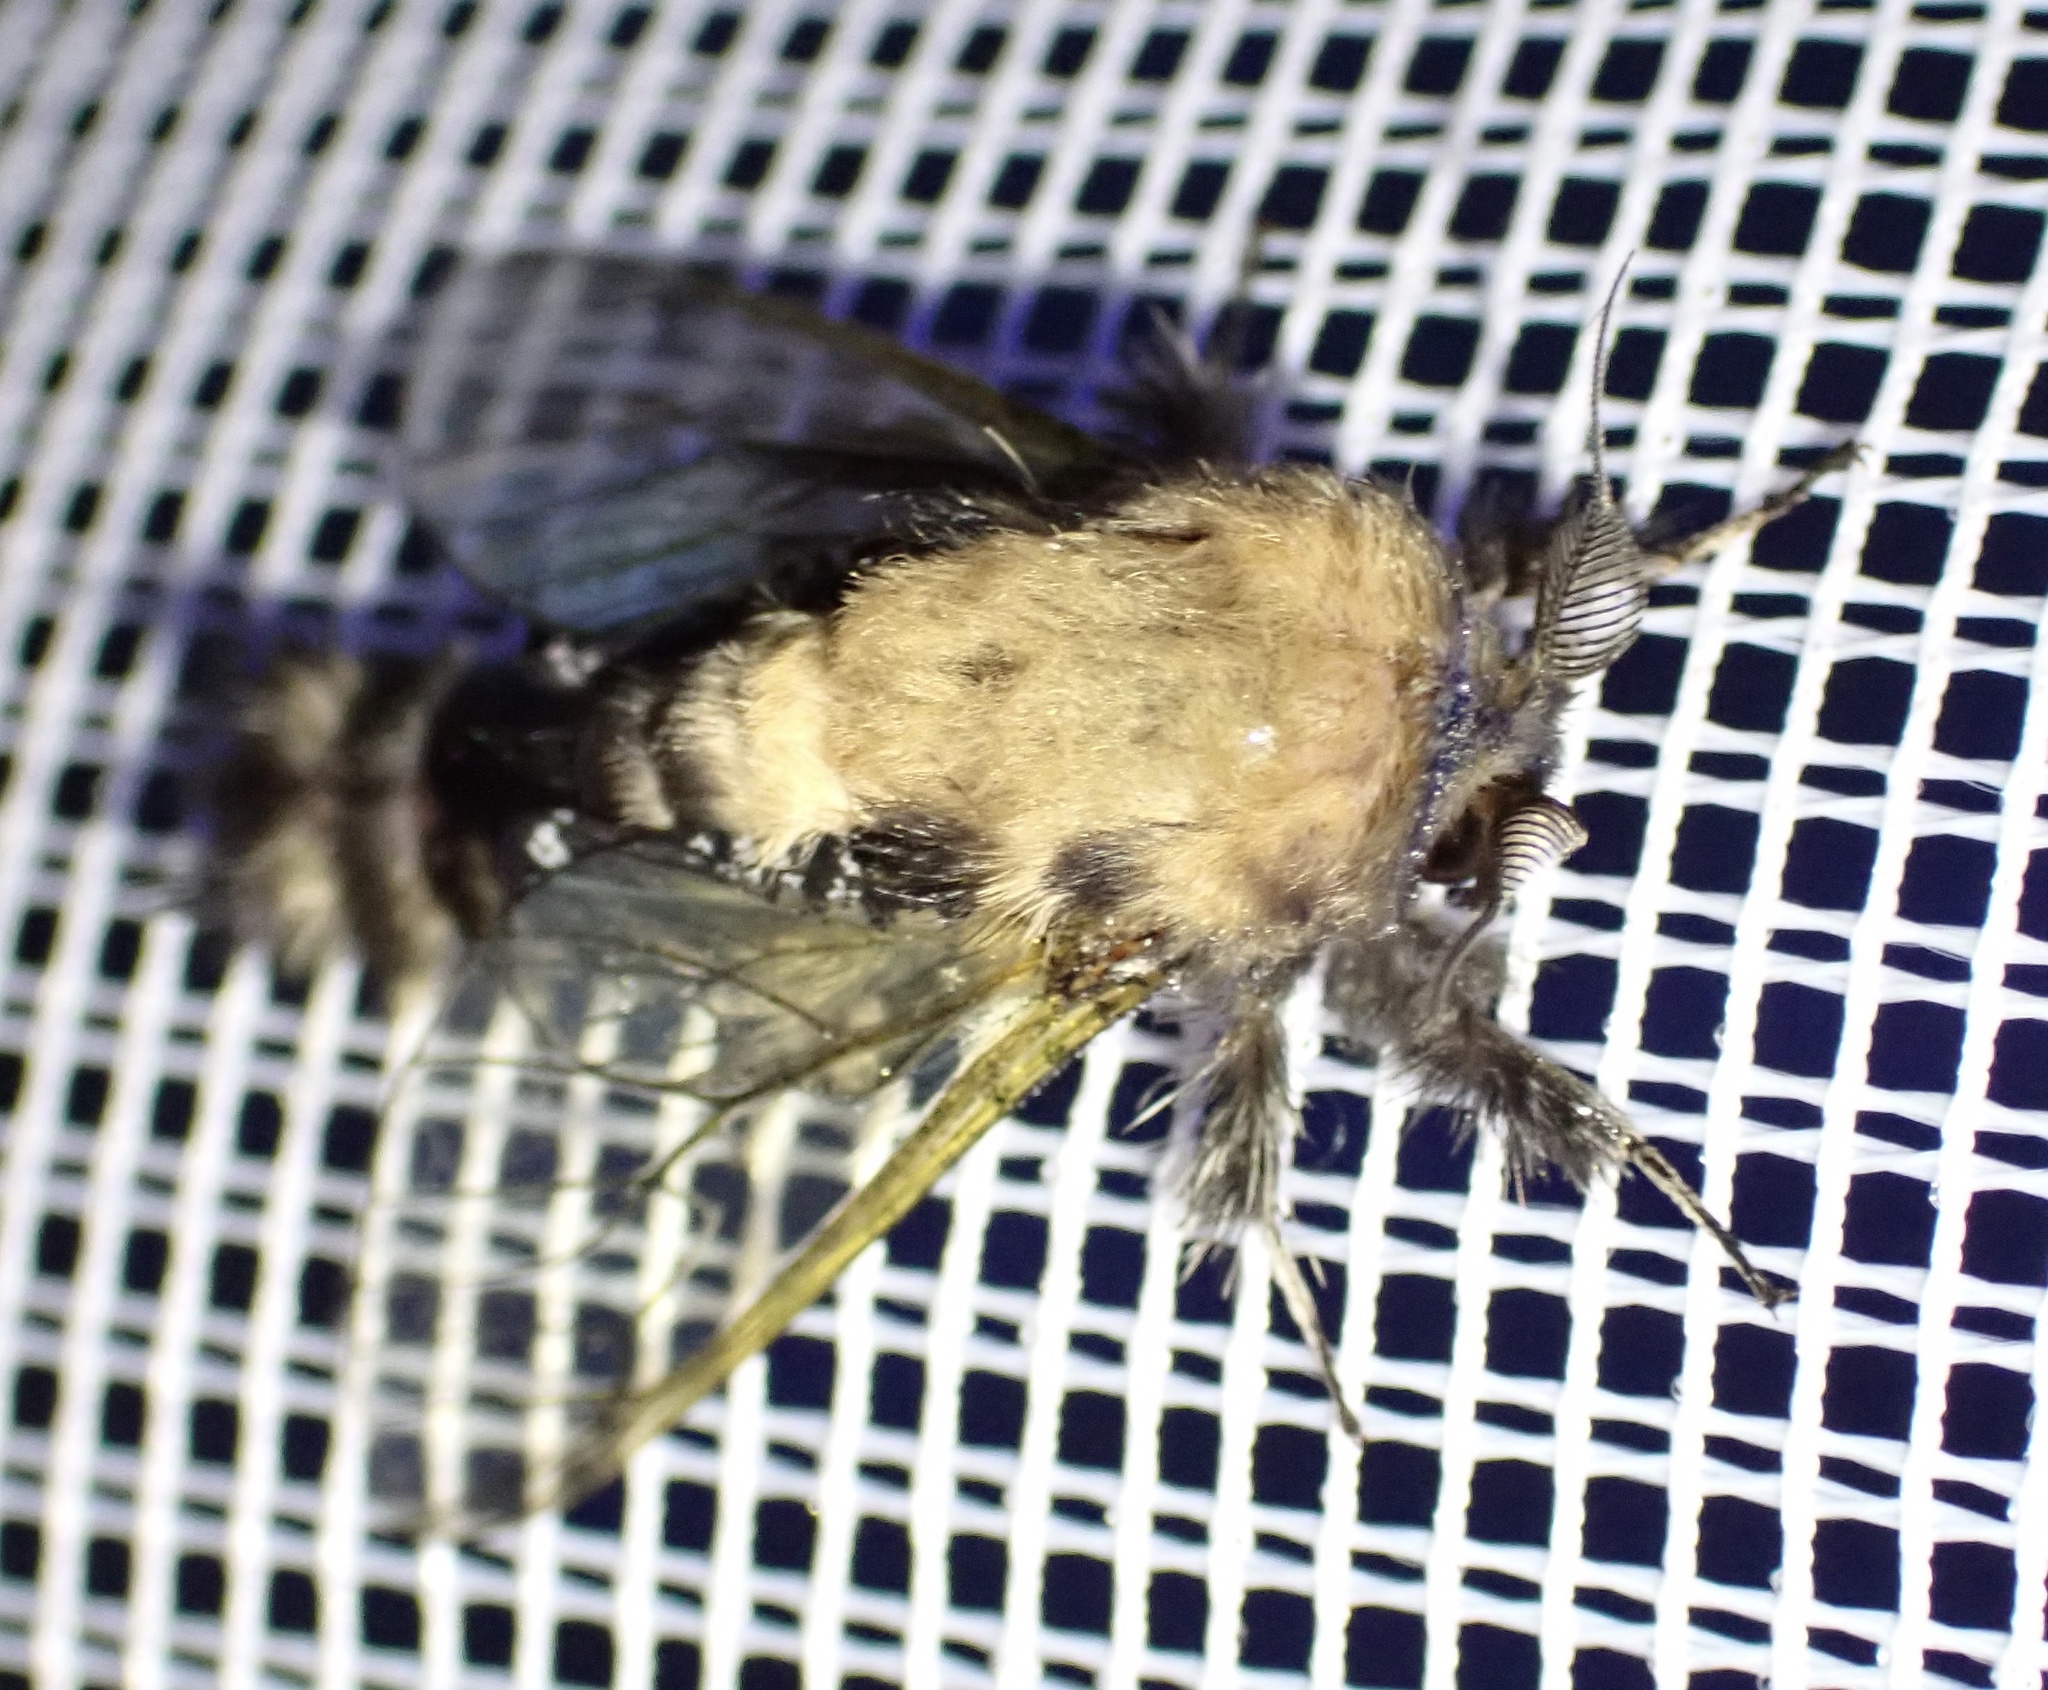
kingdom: Animalia
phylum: Arthropoda
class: Insecta
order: Lepidoptera
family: Cossidae
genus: Eulophonotus
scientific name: Eulophonotus myrmeleon
